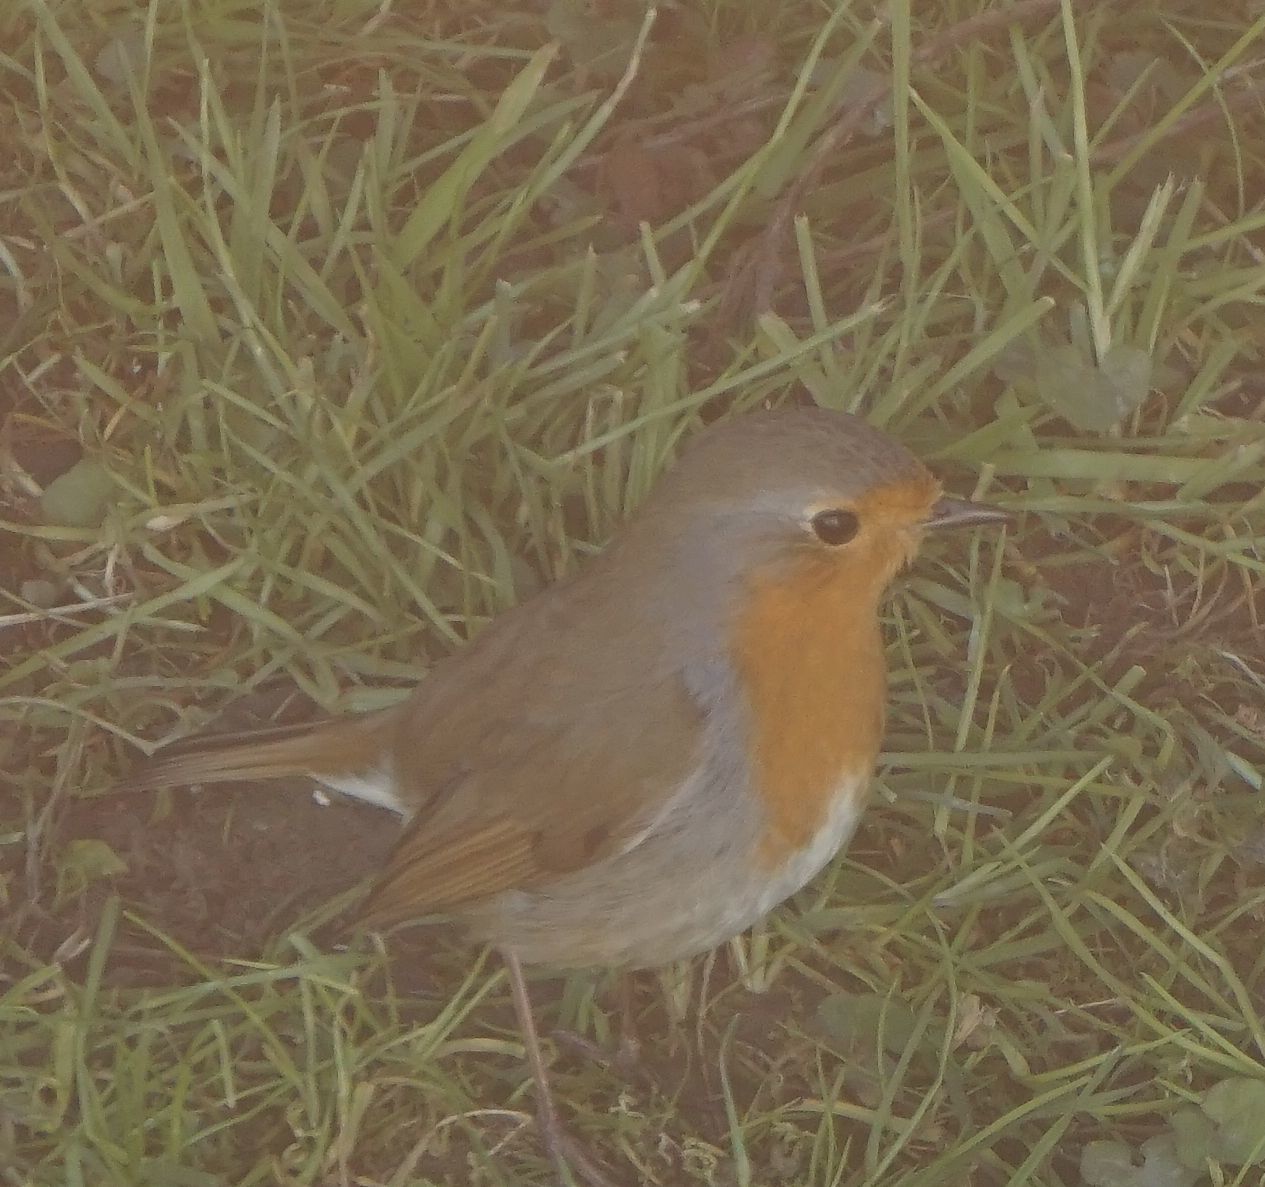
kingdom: Animalia
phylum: Chordata
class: Aves
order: Passeriformes
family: Muscicapidae
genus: Erithacus
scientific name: Erithacus rubecula
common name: European robin
